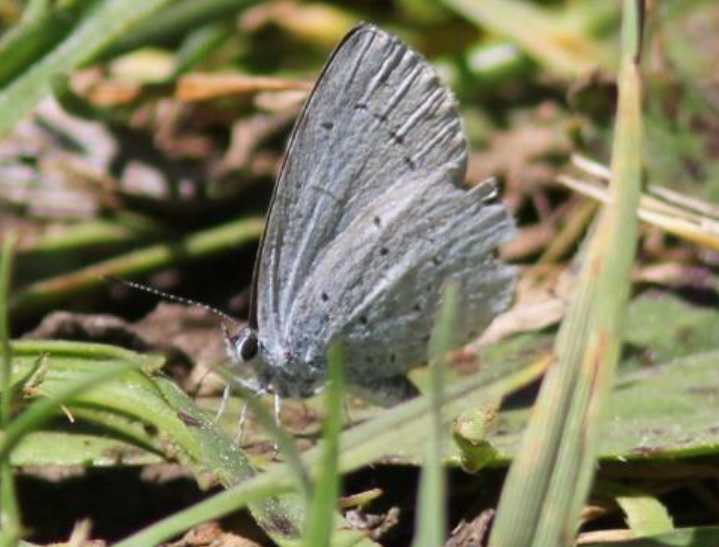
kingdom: Animalia
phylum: Arthropoda
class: Insecta
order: Lepidoptera
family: Lycaenidae
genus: Celastrina
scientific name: Celastrina argiolus
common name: Holly blue
